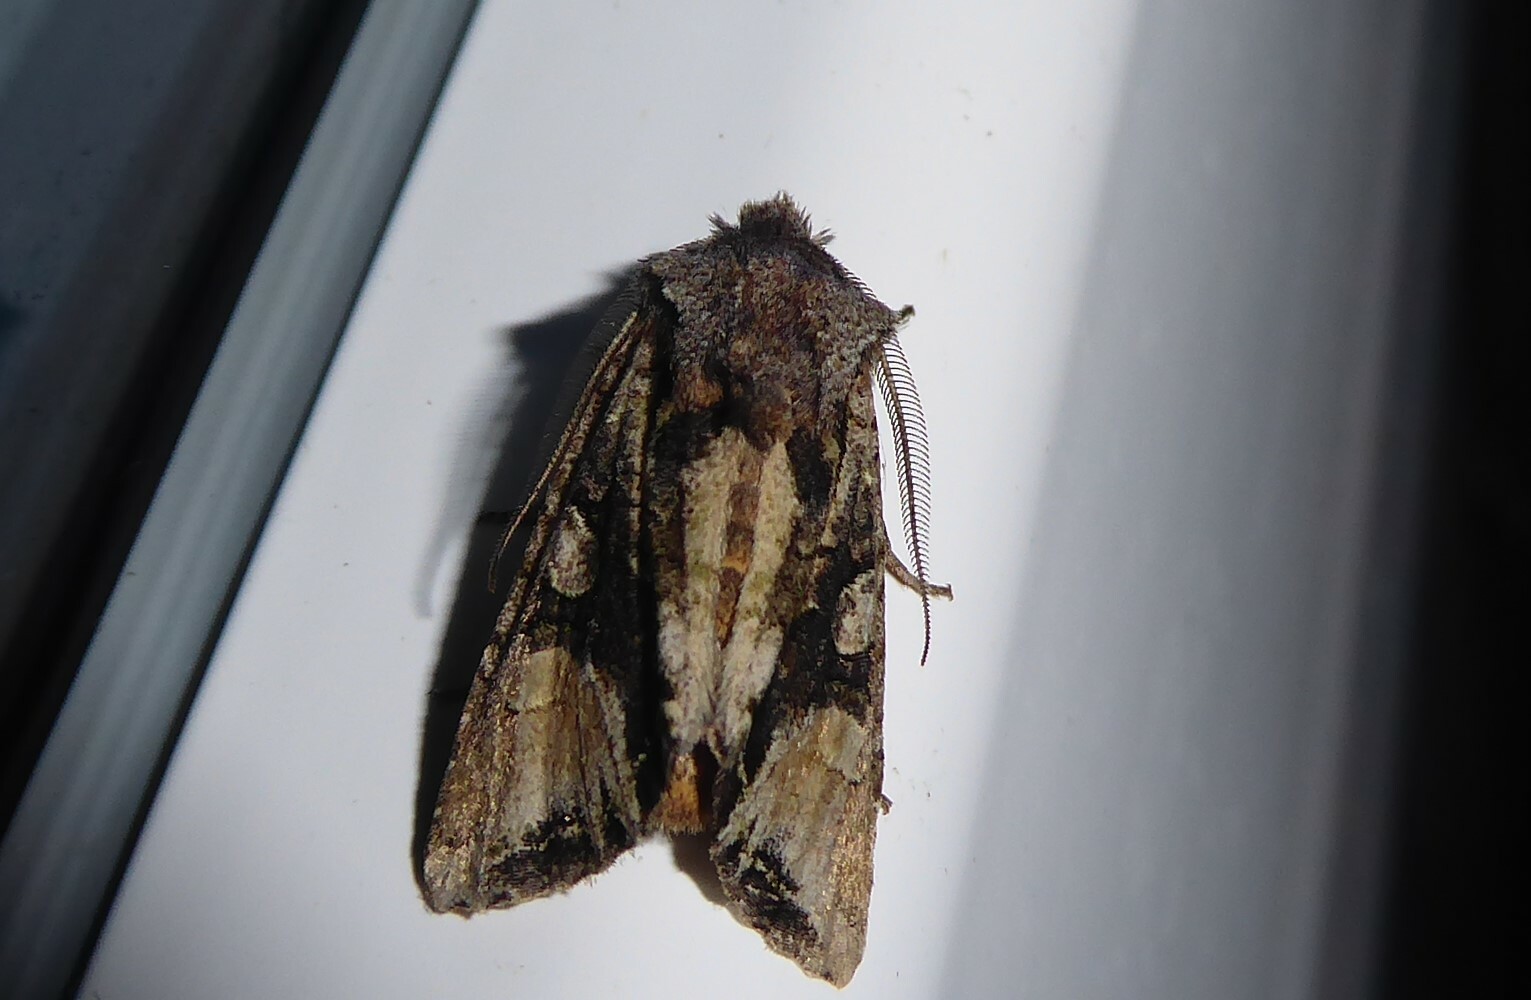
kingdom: Animalia
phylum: Arthropoda
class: Insecta
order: Lepidoptera
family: Noctuidae
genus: Ichneutica
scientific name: Ichneutica
